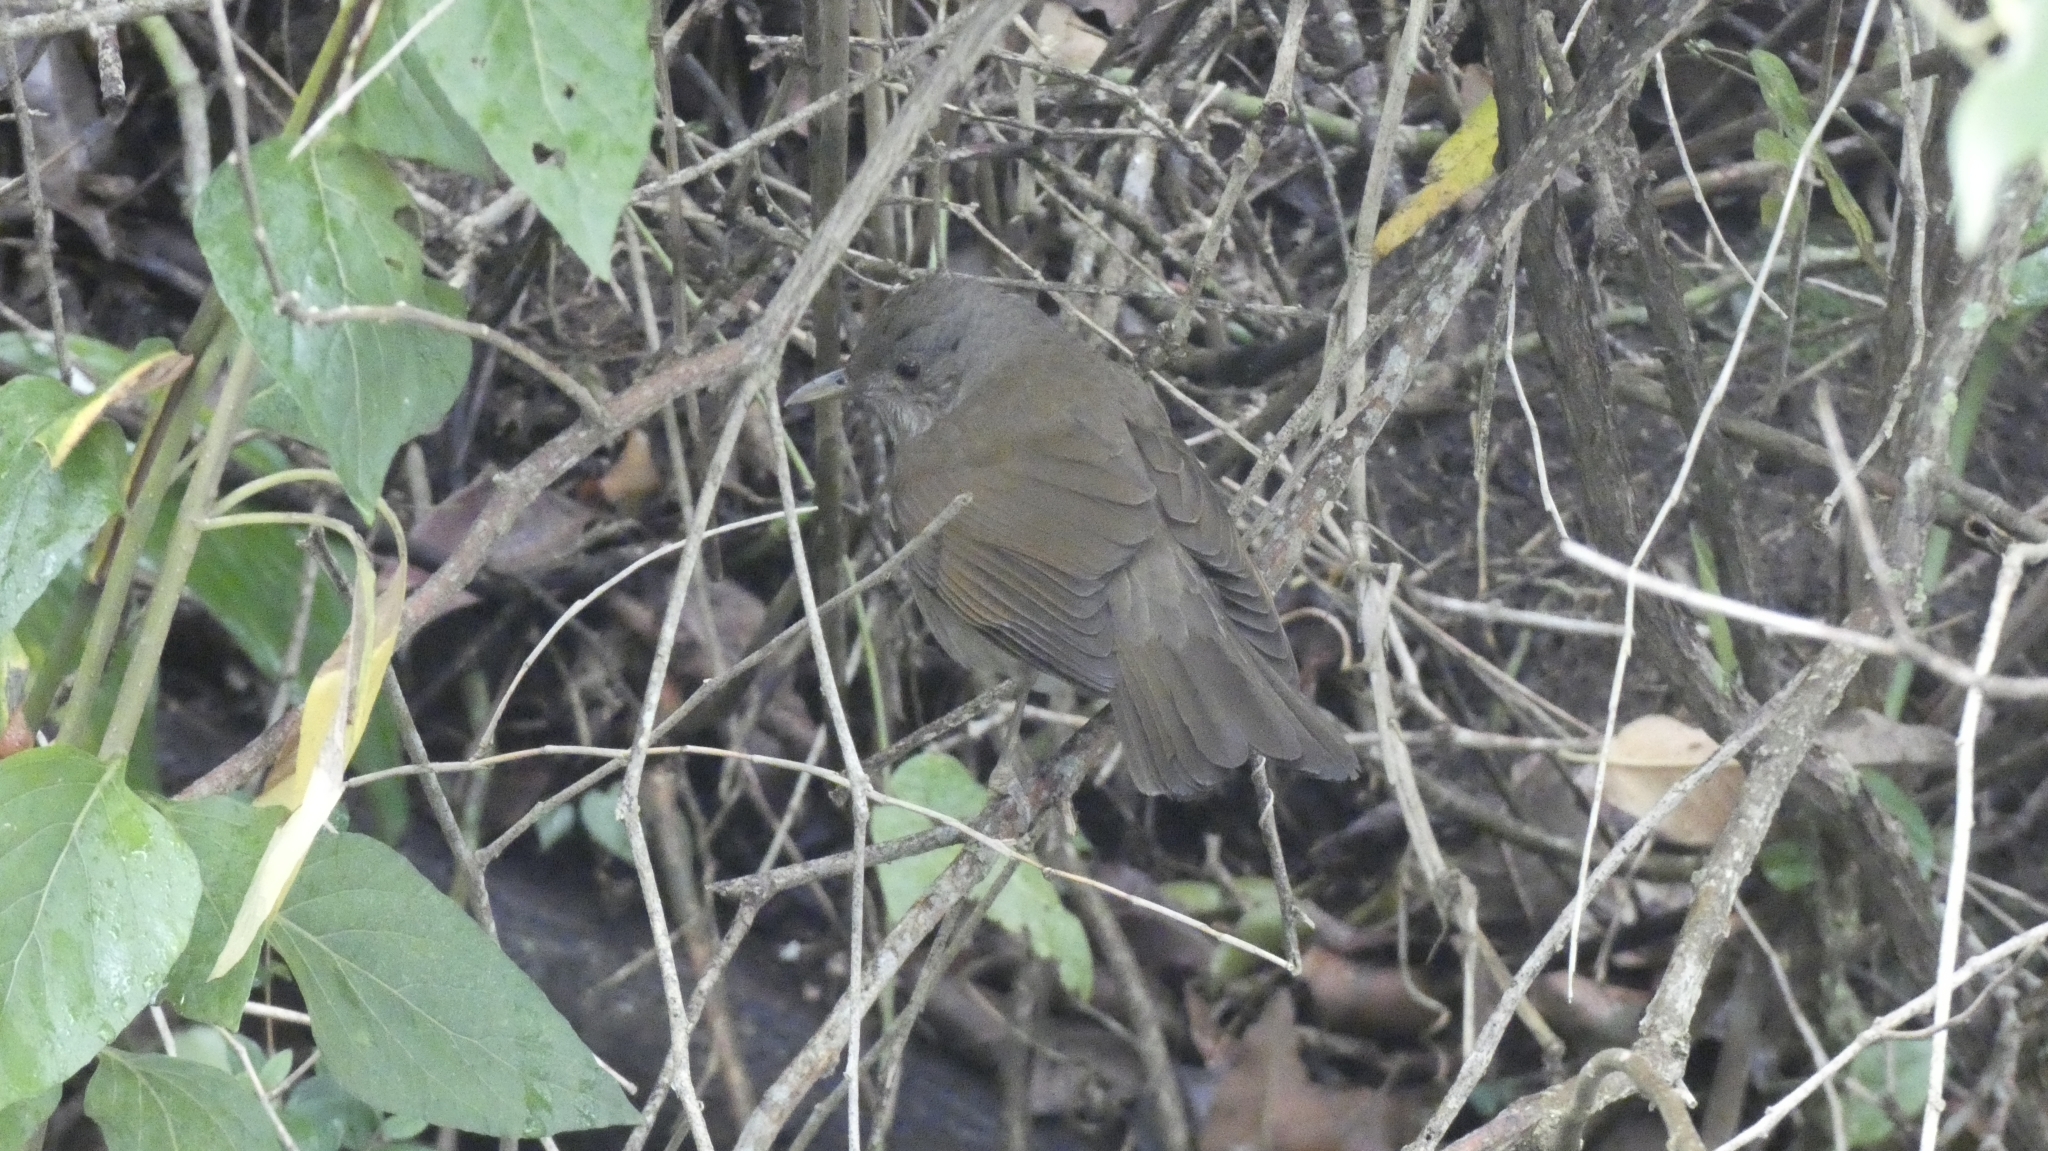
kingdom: Animalia
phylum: Chordata
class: Aves
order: Passeriformes
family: Turdidae
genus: Turdus
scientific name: Turdus leucomelas
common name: Pale-breasted thrush
